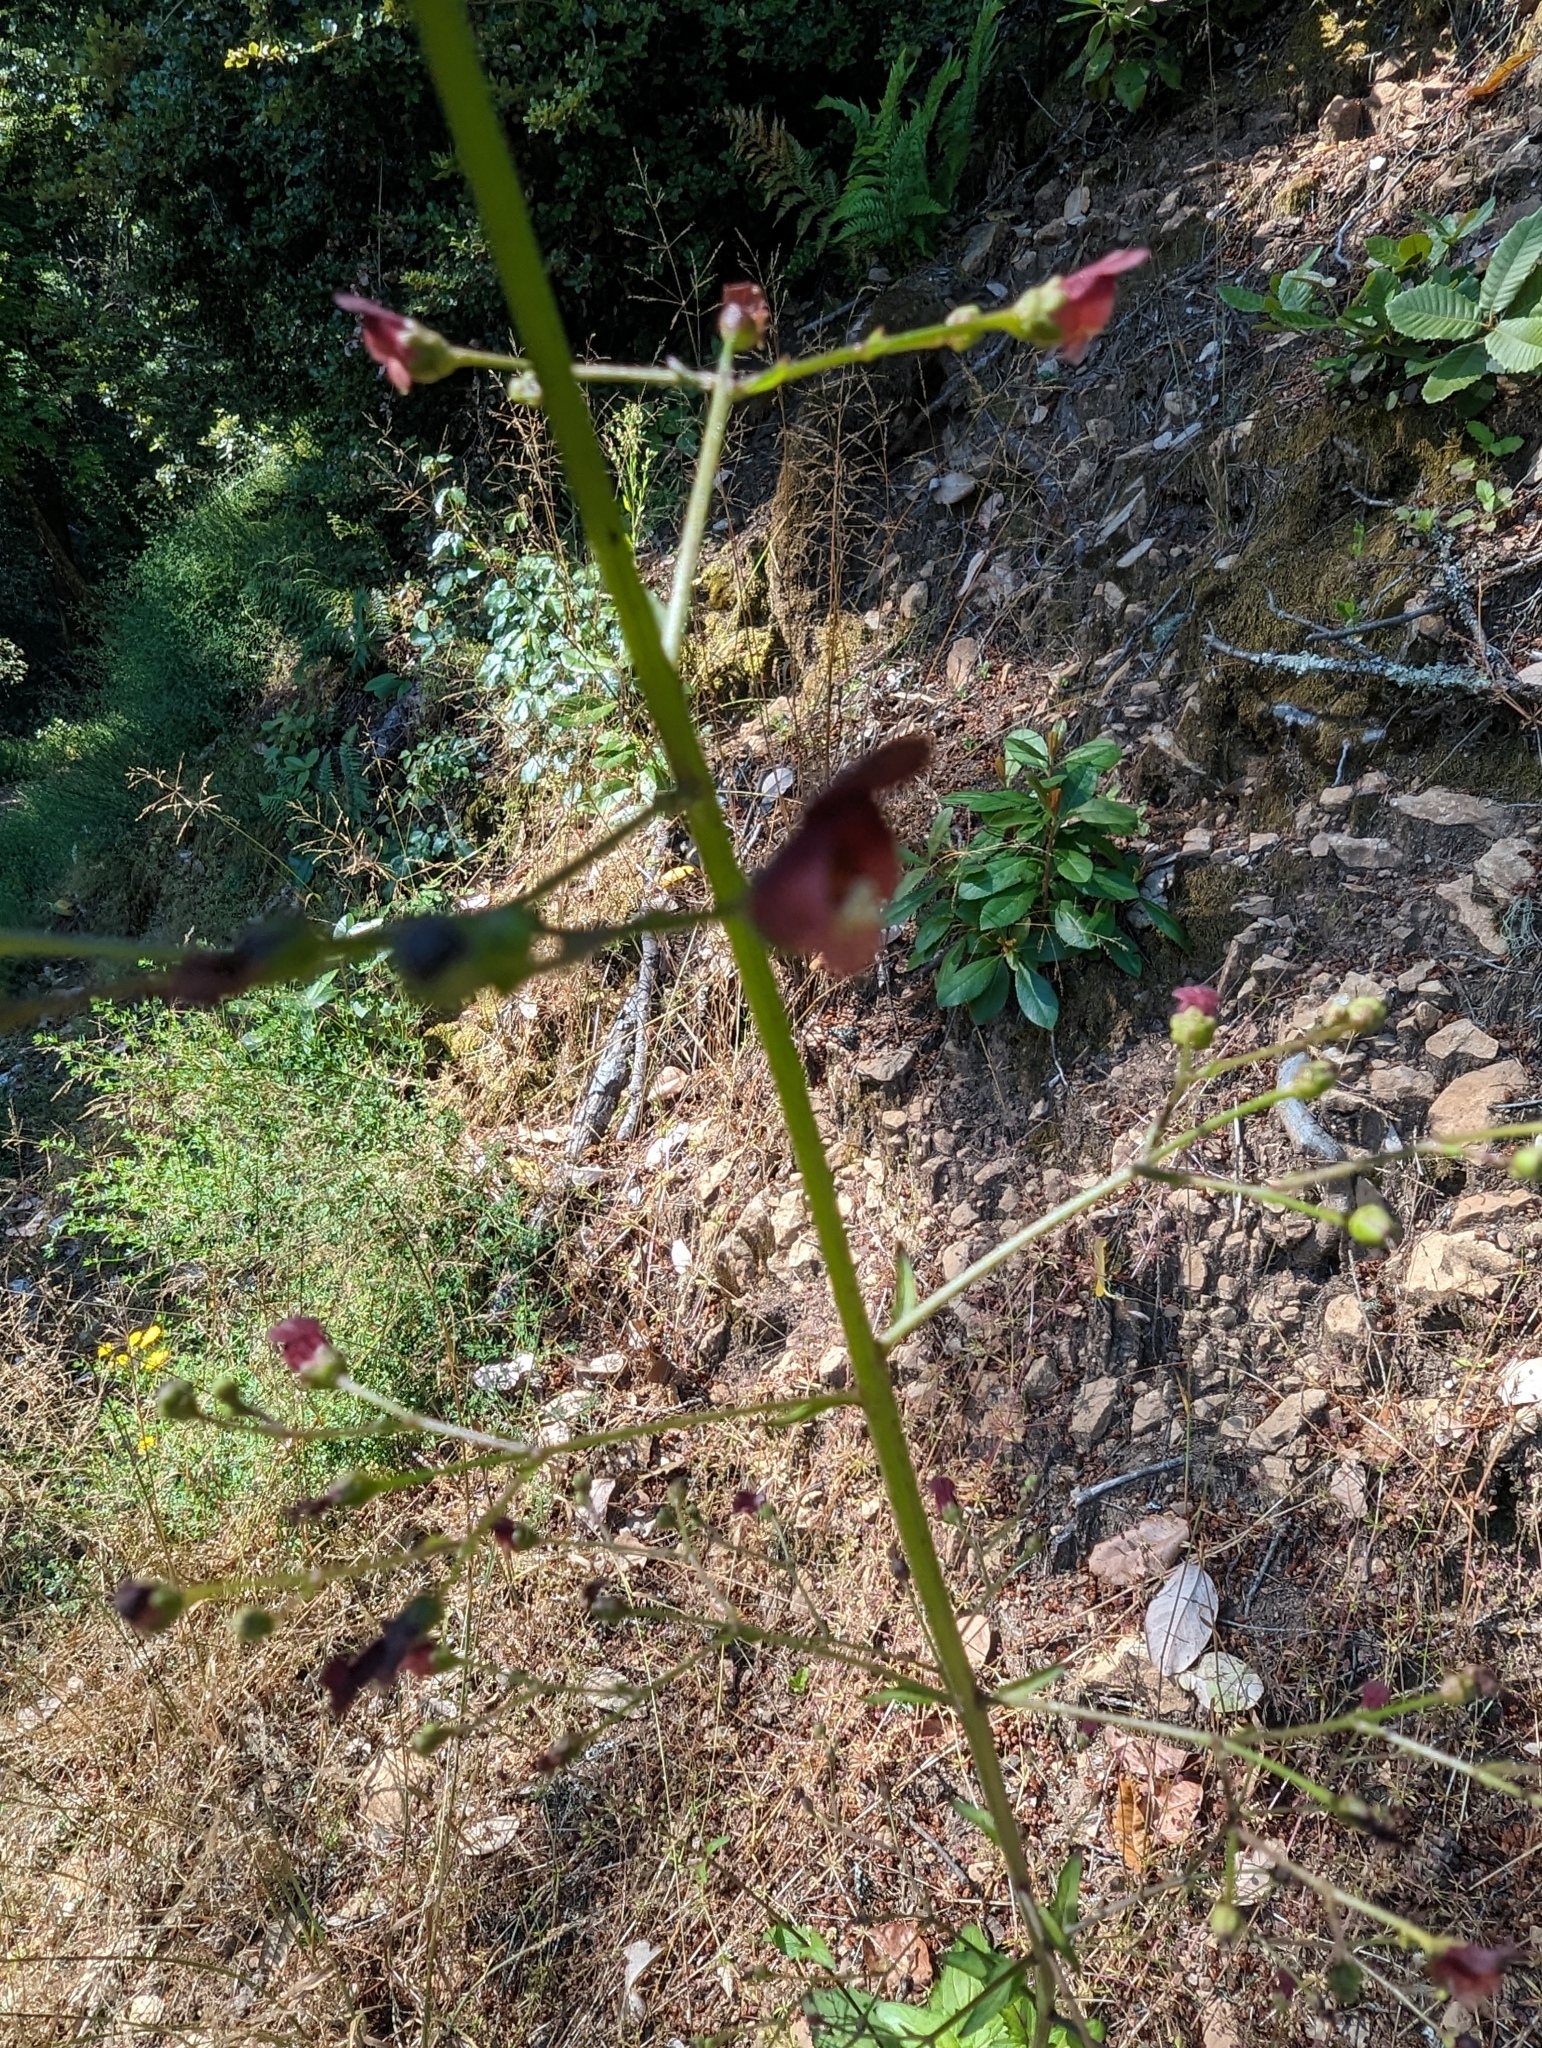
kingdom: Plantae
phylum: Tracheophyta
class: Magnoliopsida
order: Lamiales
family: Scrophulariaceae
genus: Scrophularia
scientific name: Scrophularia californica
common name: California figwort
